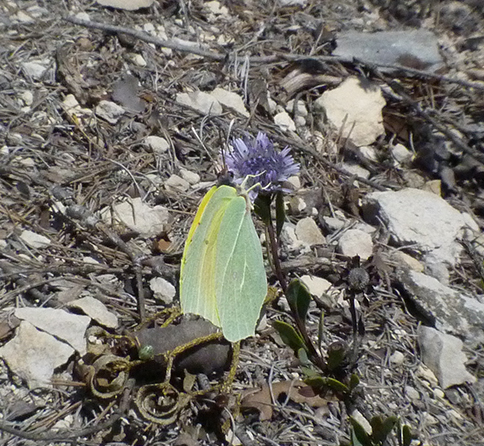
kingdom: Animalia
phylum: Arthropoda
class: Insecta
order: Lepidoptera
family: Pieridae
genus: Gonepteryx
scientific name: Gonepteryx cleopatra
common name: Cleopatra
